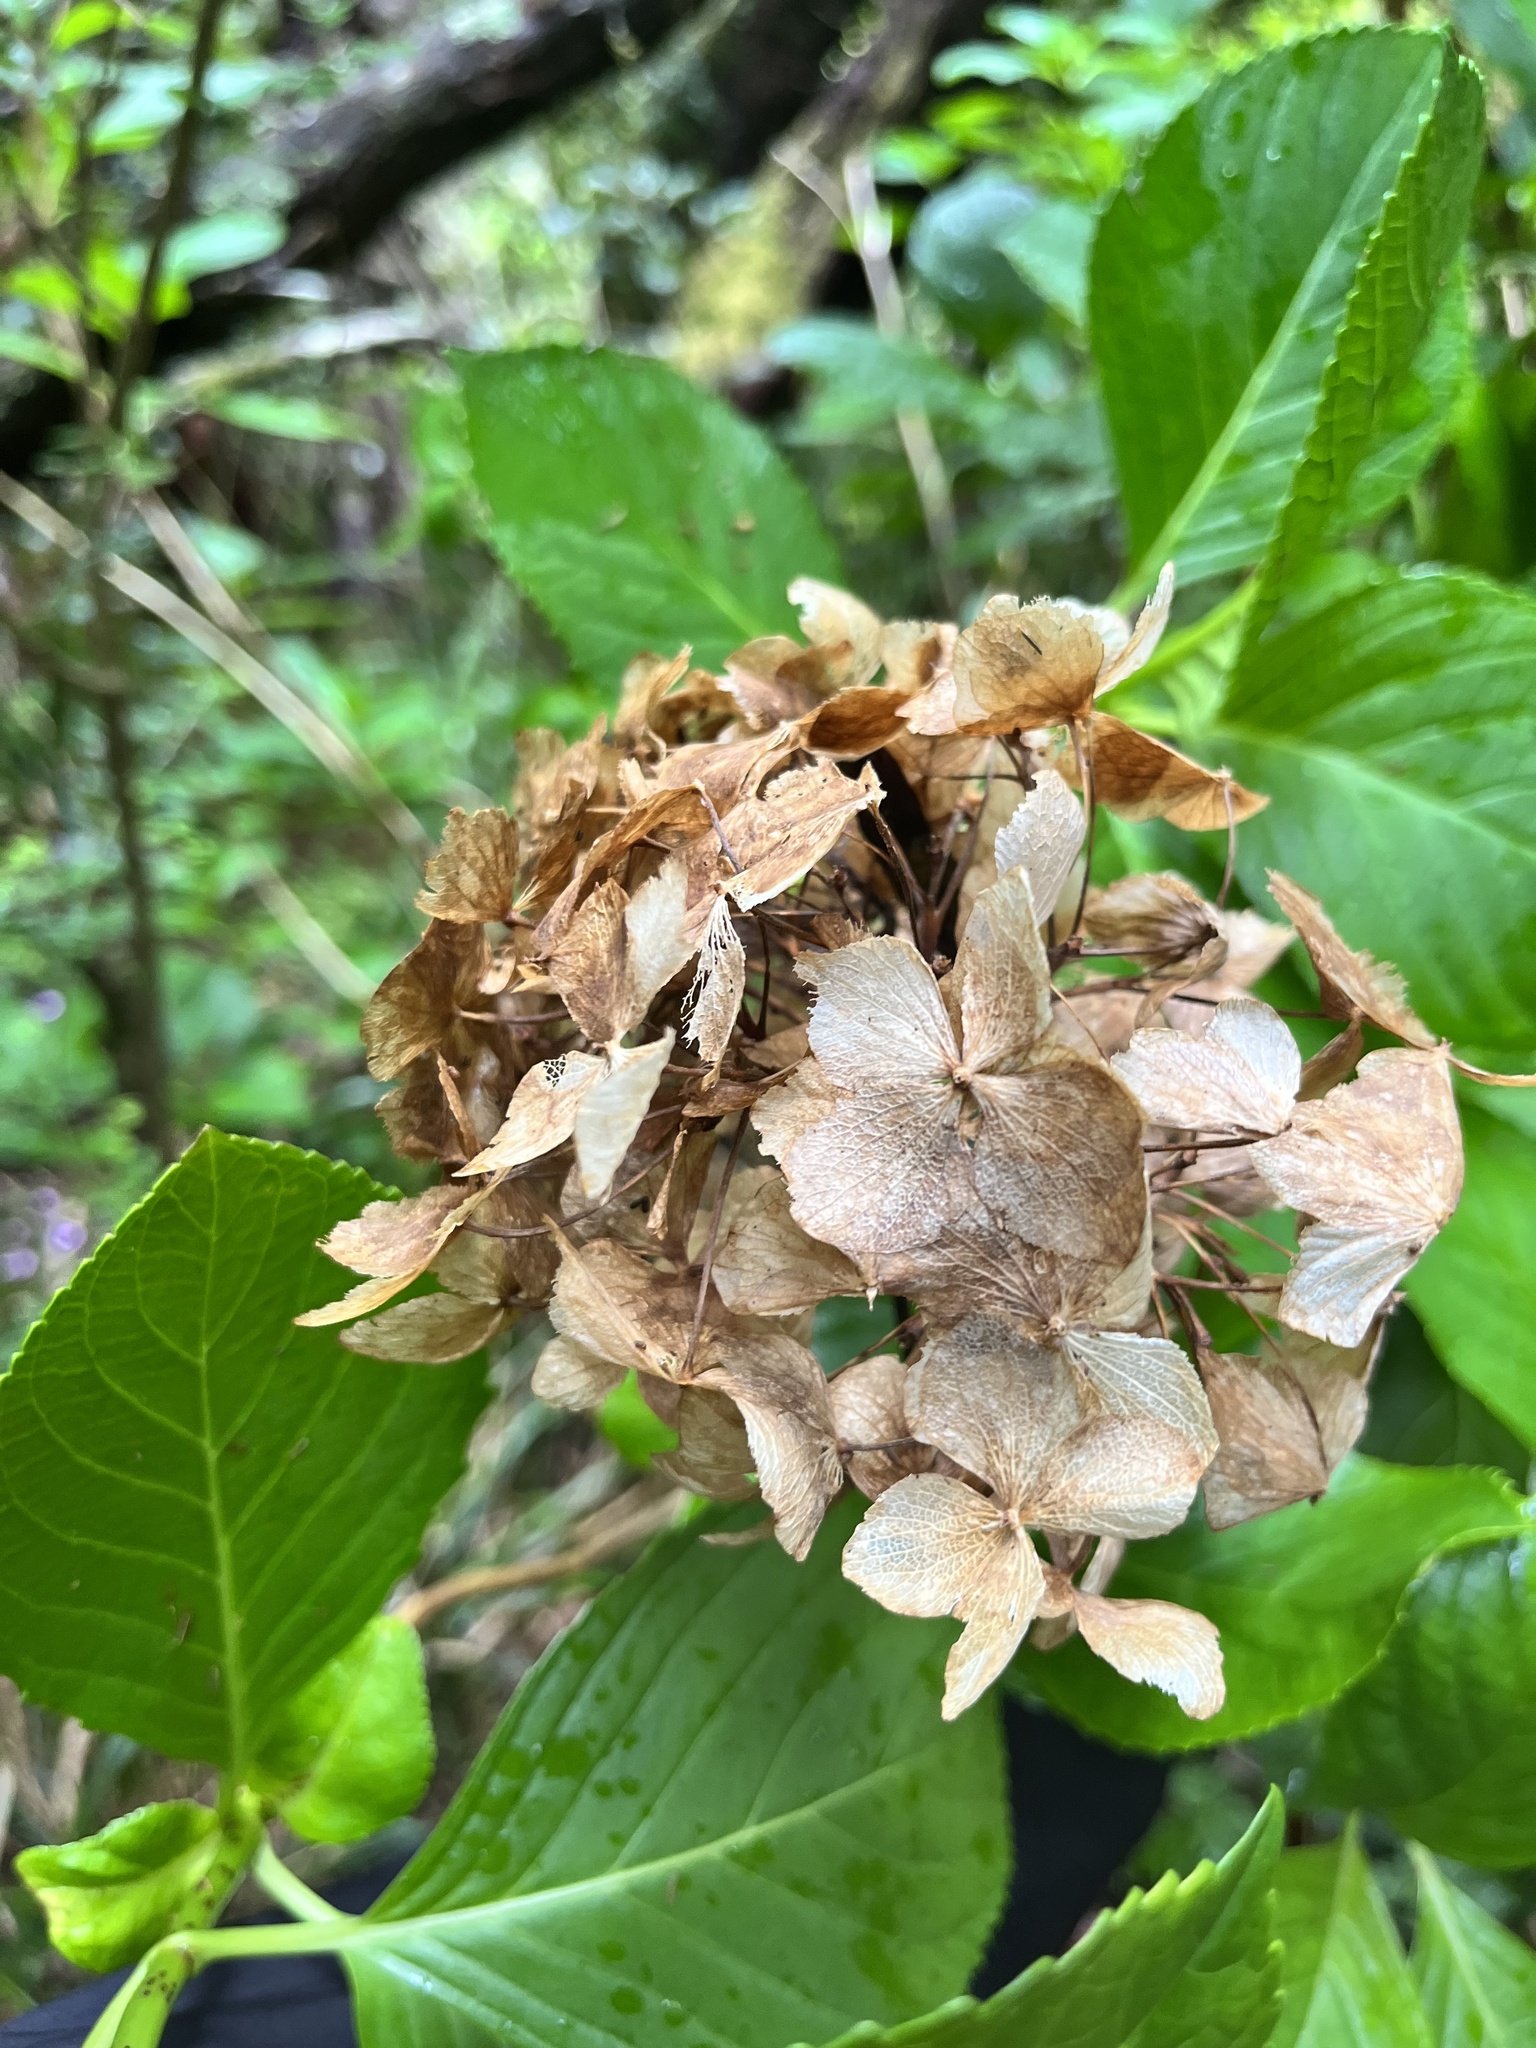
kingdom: Plantae
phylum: Tracheophyta
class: Magnoliopsida
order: Cornales
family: Hydrangeaceae
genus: Hydrangea
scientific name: Hydrangea macrophylla
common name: Hydrangea
